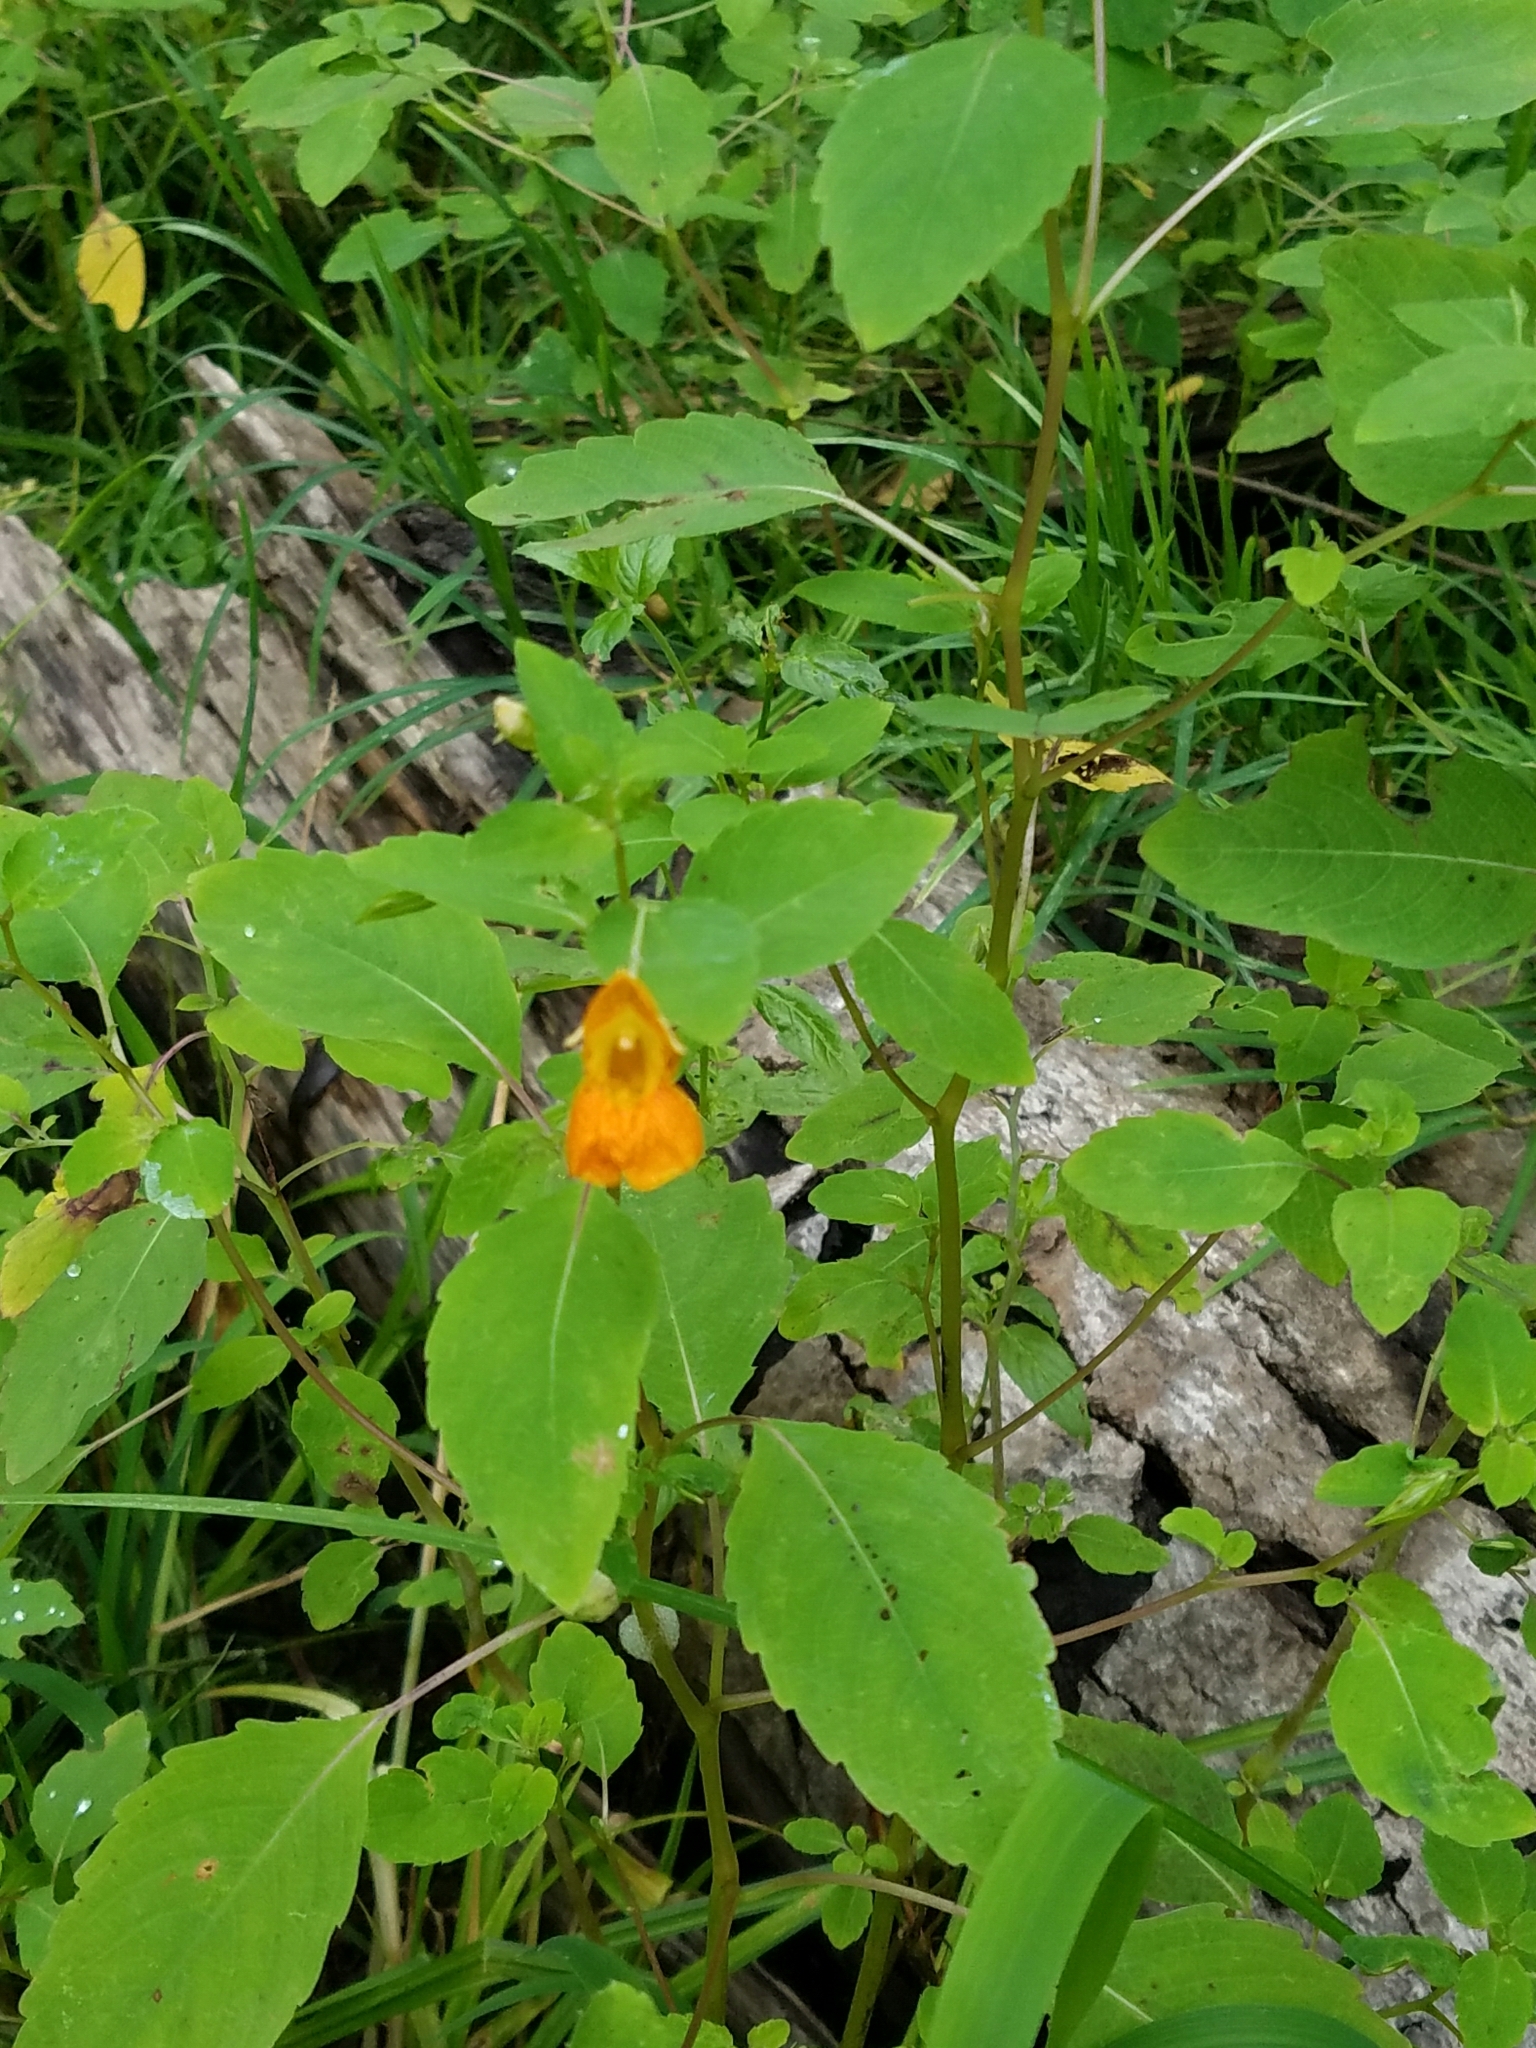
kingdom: Plantae
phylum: Tracheophyta
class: Magnoliopsida
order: Ericales
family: Balsaminaceae
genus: Impatiens
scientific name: Impatiens capensis
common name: Orange balsam
